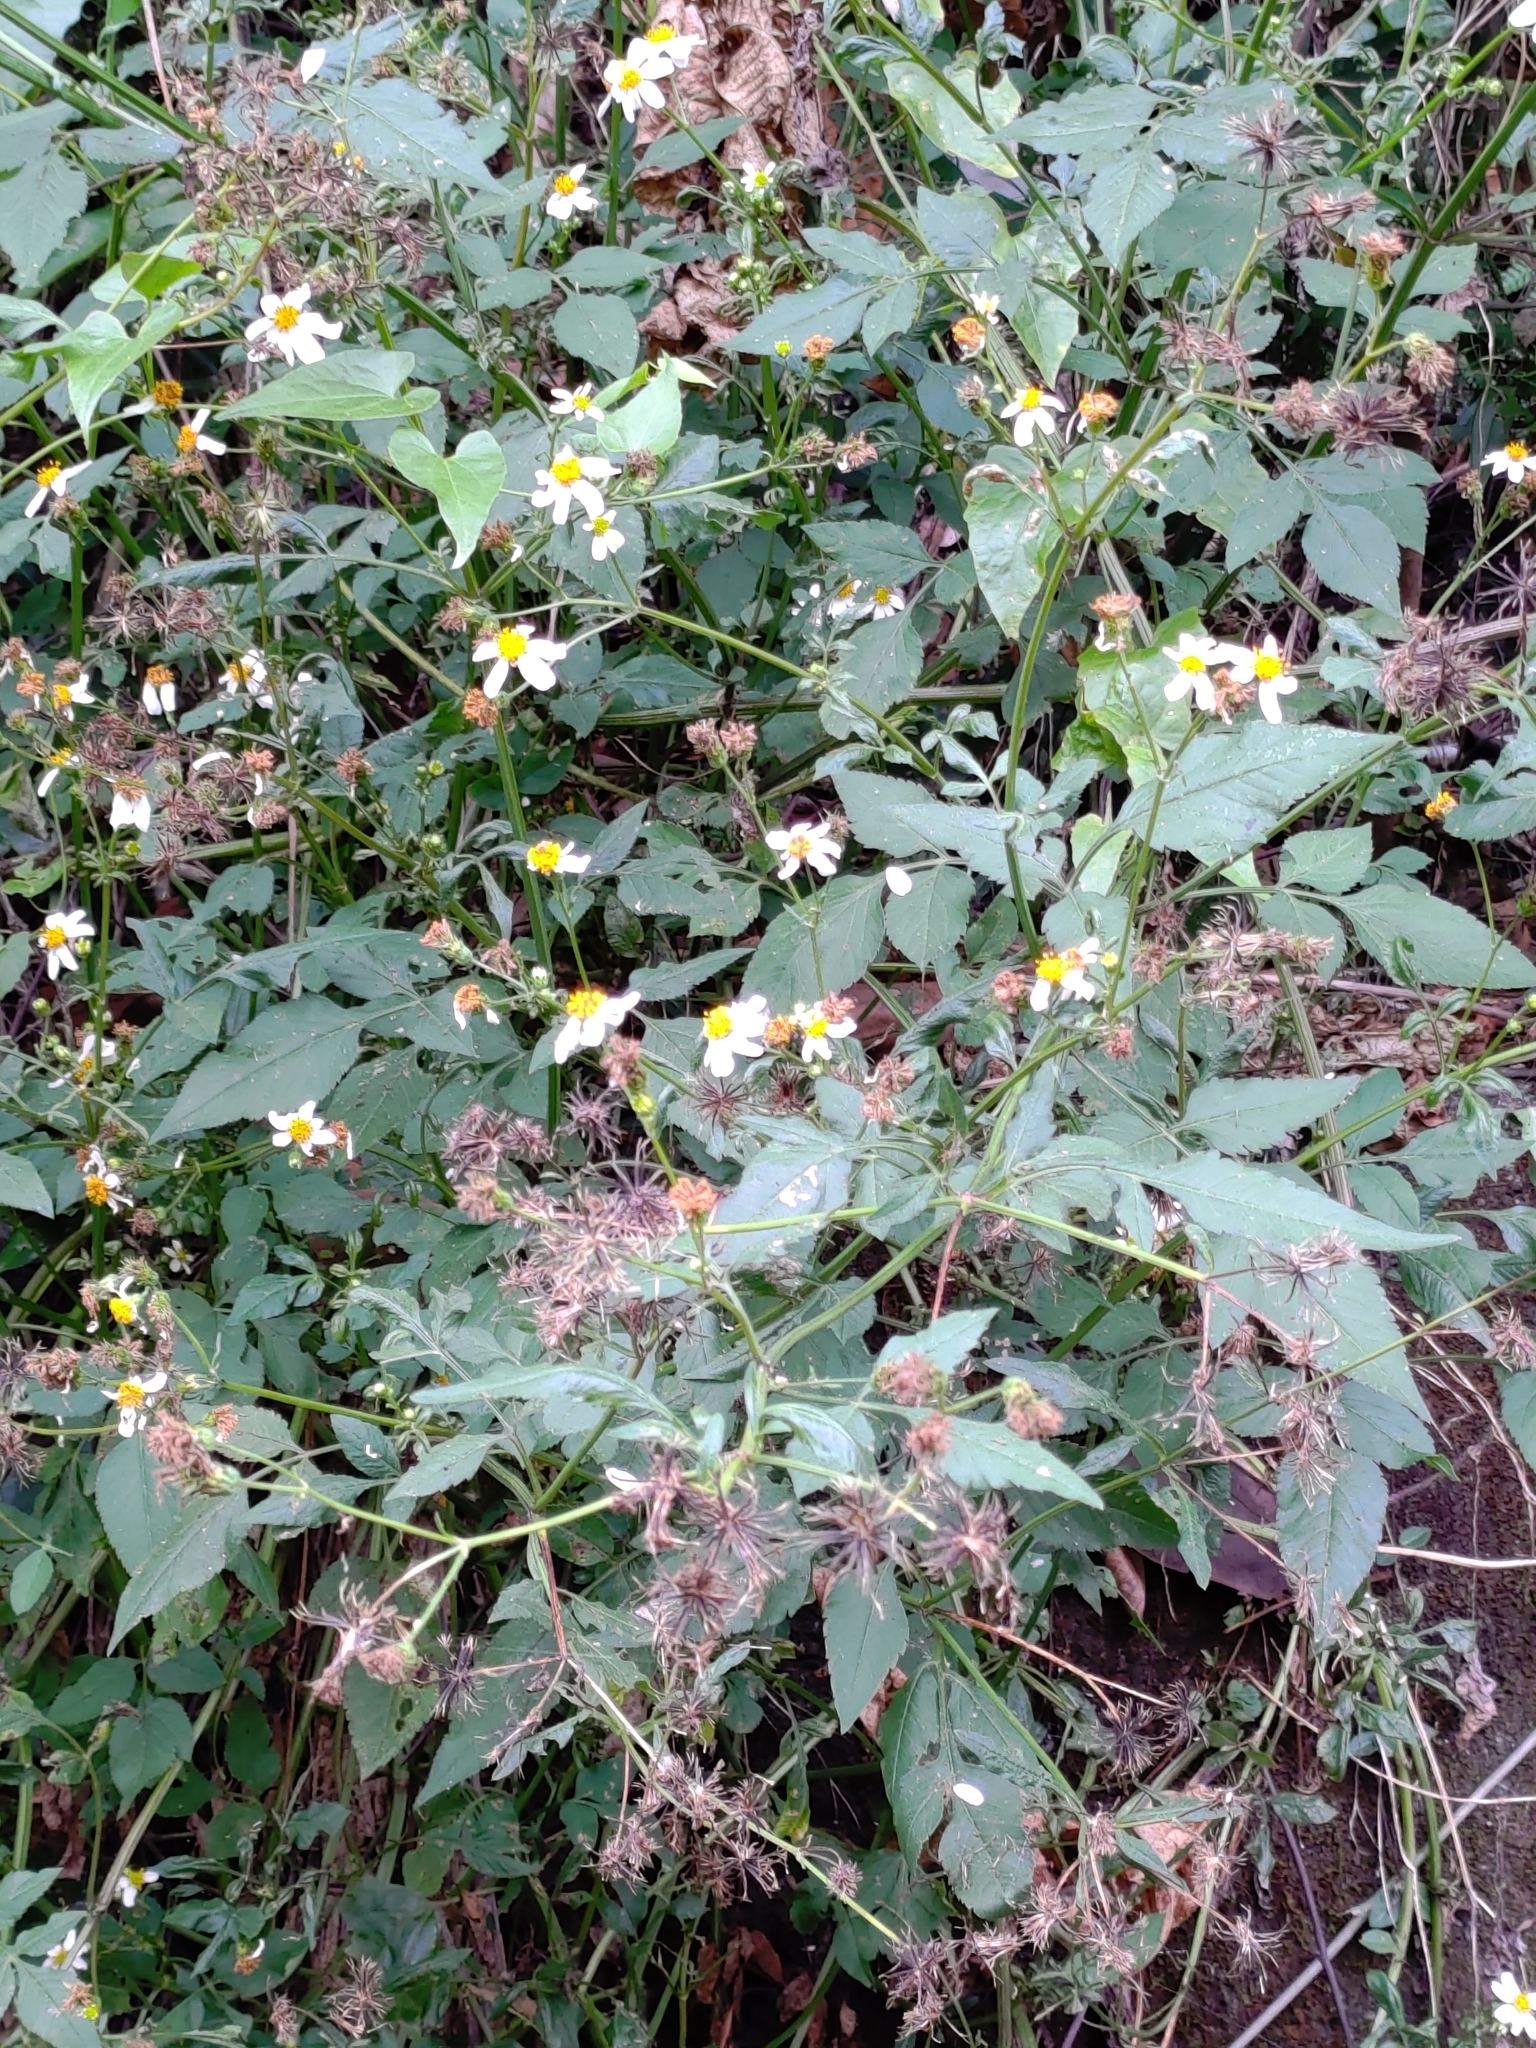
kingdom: Plantae
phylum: Tracheophyta
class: Magnoliopsida
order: Asterales
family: Asteraceae
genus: Bidens
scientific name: Bidens alba
